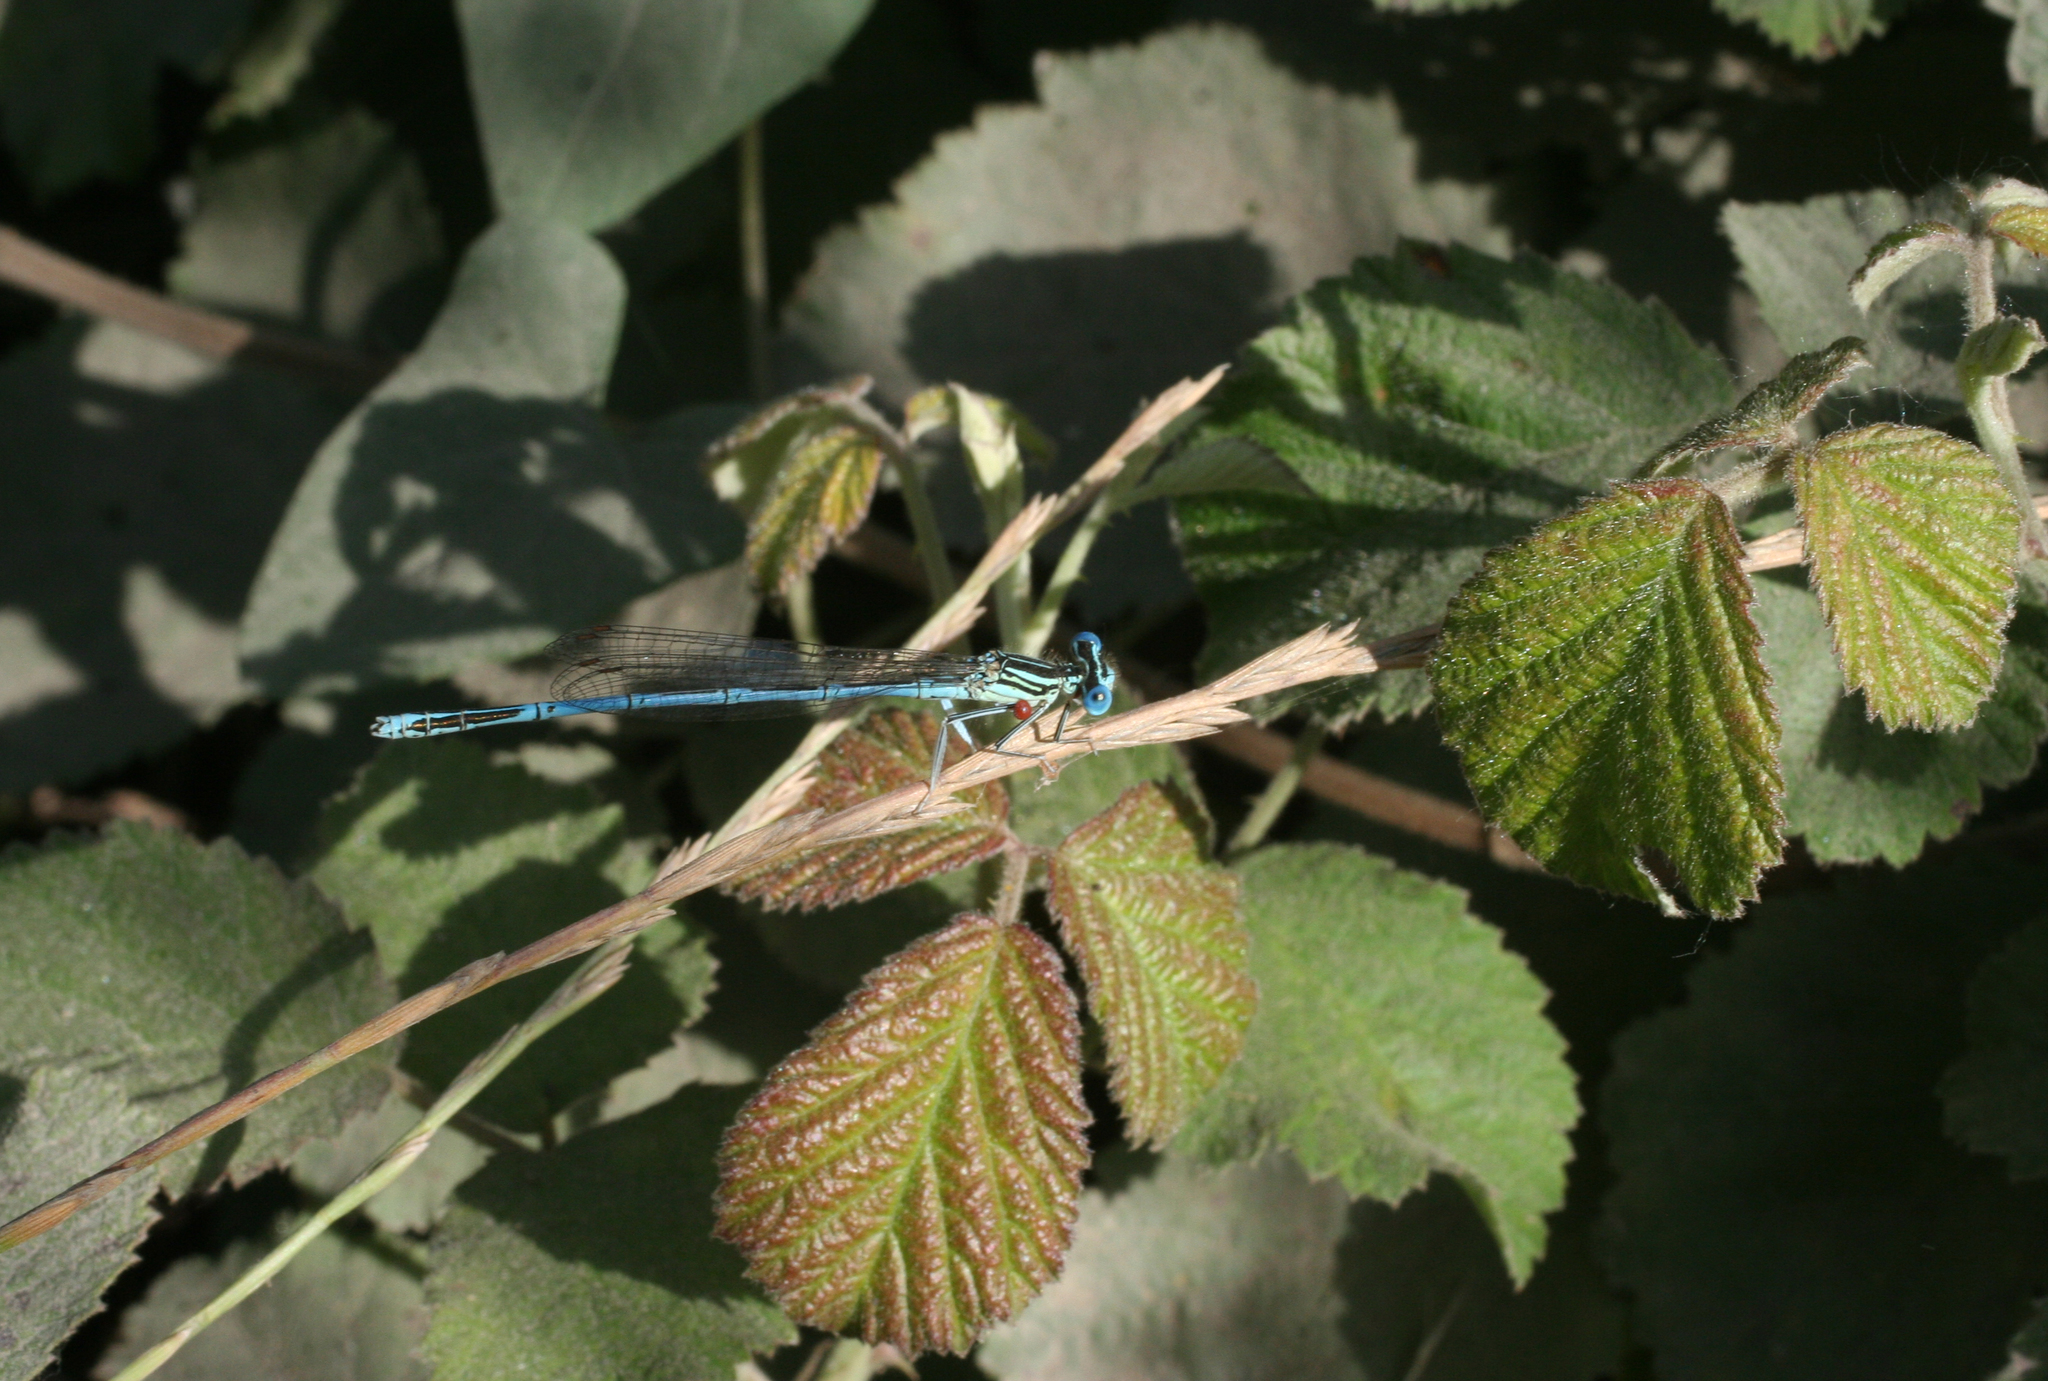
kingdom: Animalia
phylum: Arthropoda
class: Insecta
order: Odonata
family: Platycnemididae
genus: Platycnemis
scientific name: Platycnemis pennipes
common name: White-legged damselfly
